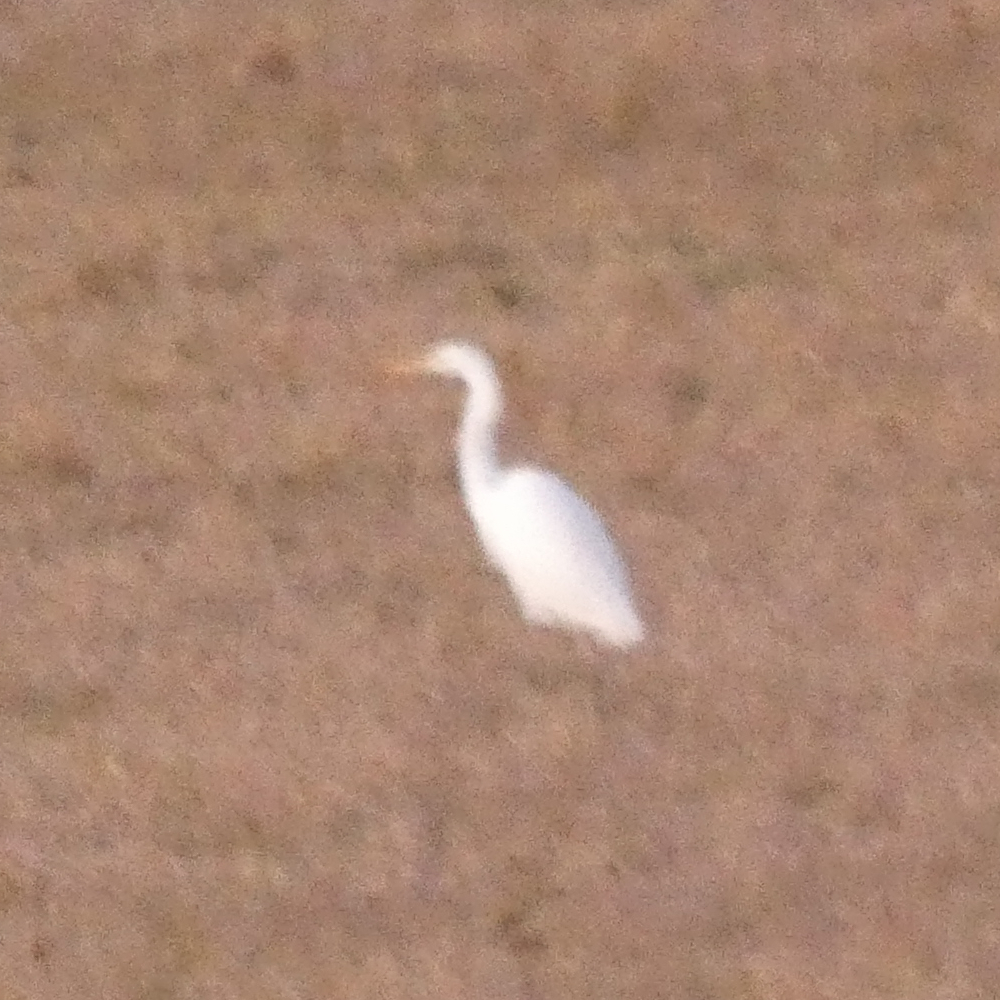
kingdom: Animalia
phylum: Chordata
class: Aves
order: Pelecaniformes
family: Ardeidae
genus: Ardea
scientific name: Ardea alba
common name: Great egret
